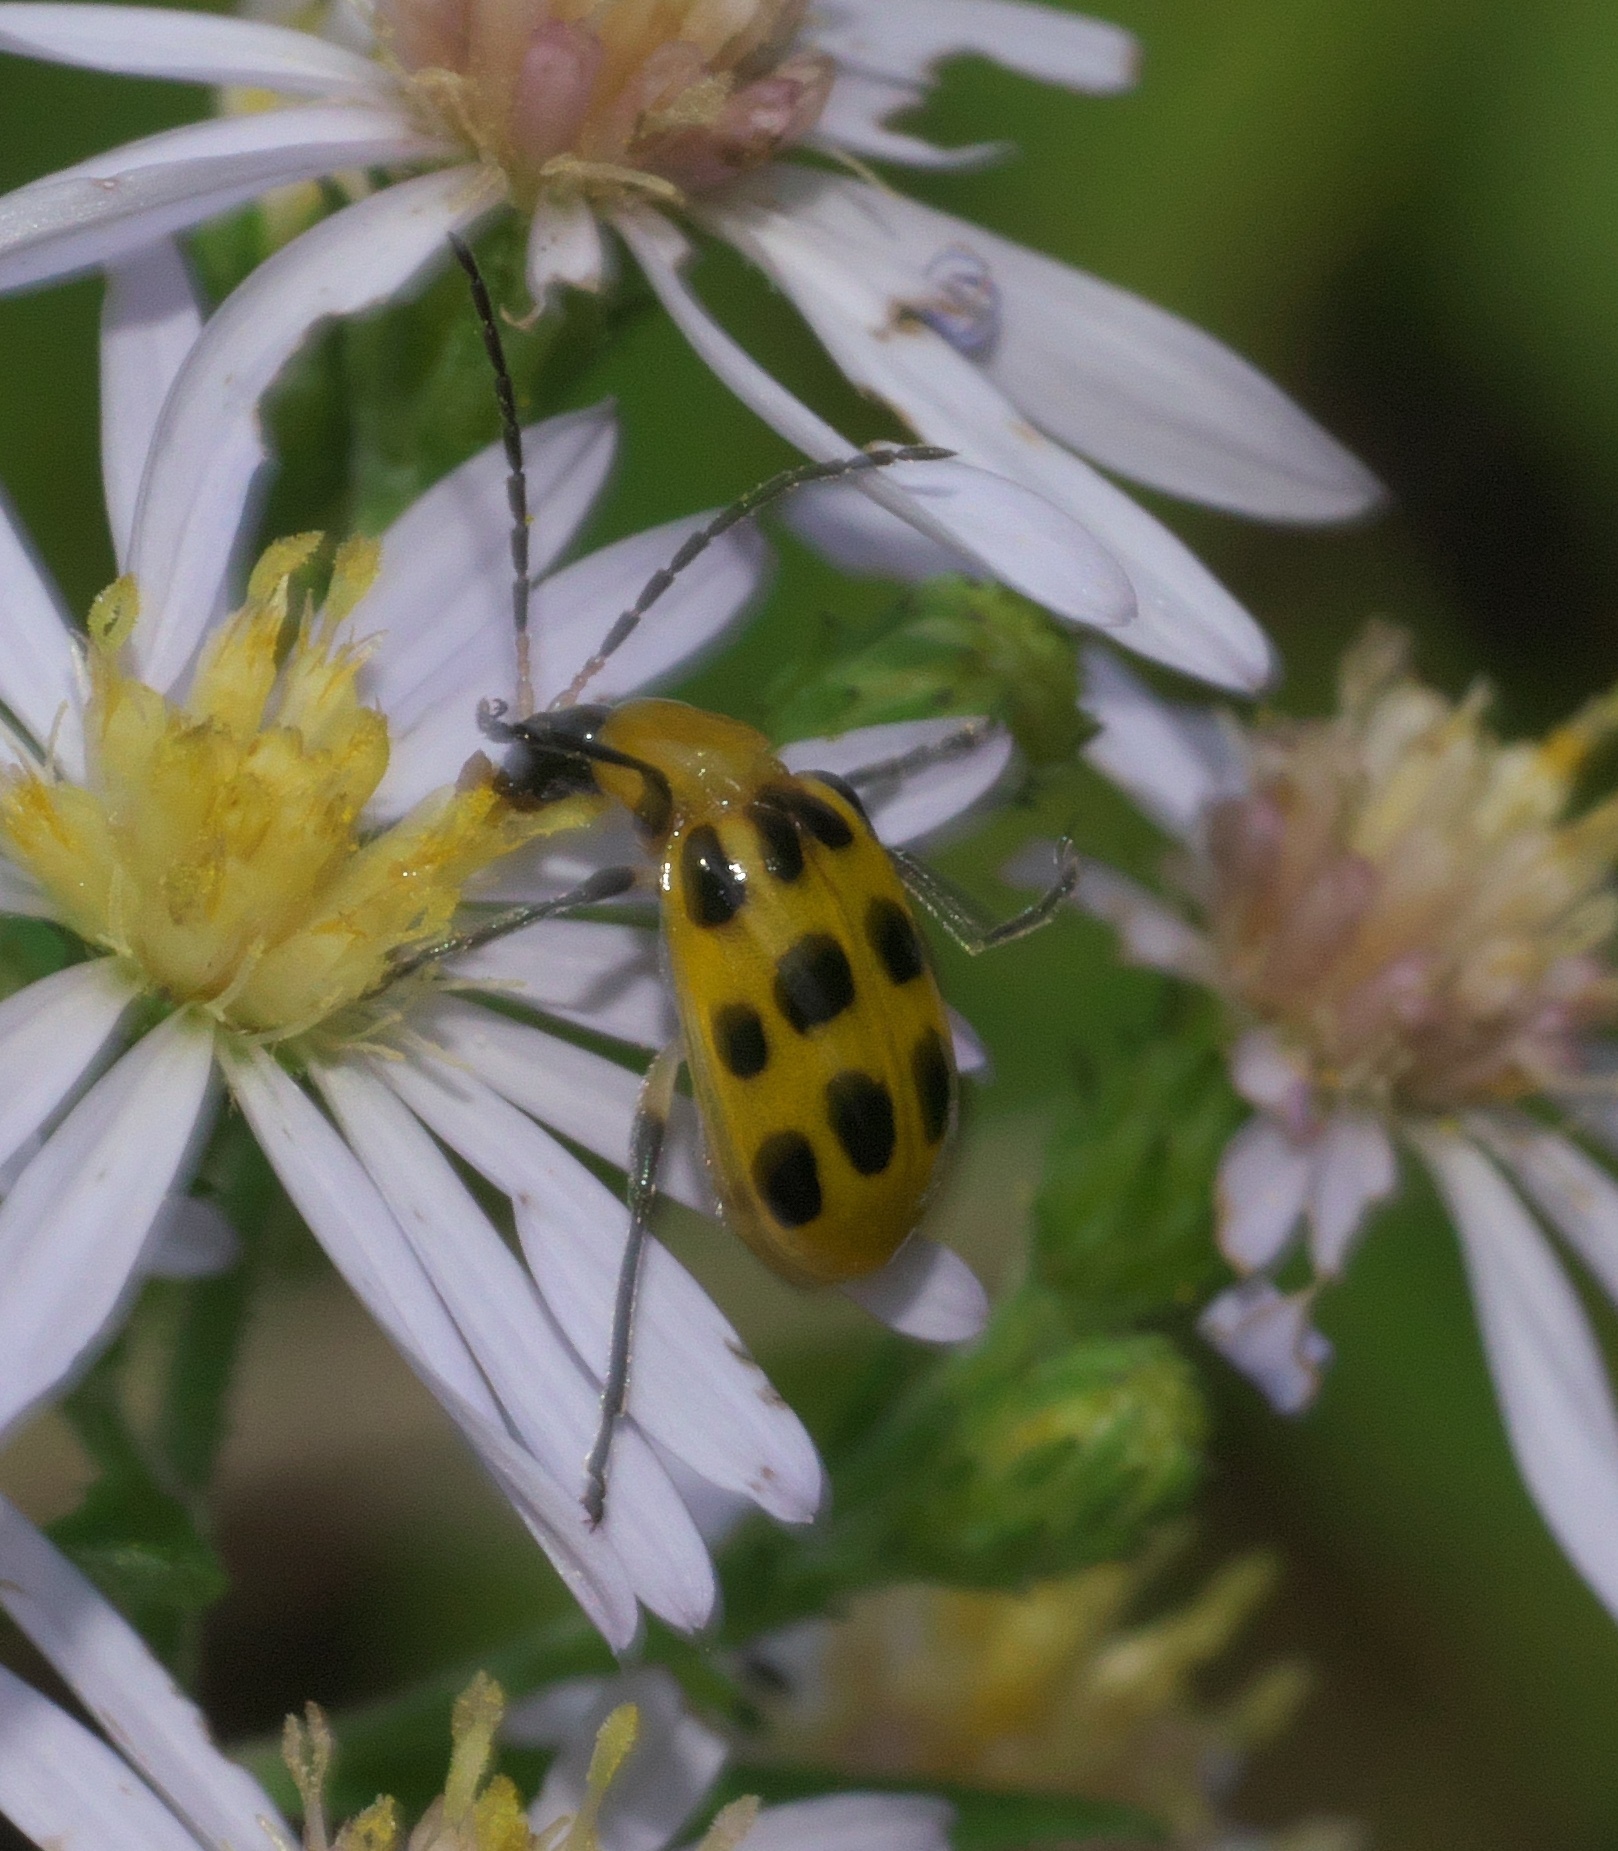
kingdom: Animalia
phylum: Arthropoda
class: Insecta
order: Coleoptera
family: Chrysomelidae
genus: Diabrotica
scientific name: Diabrotica undecimpunctata
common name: Spotted cucumber beetle
